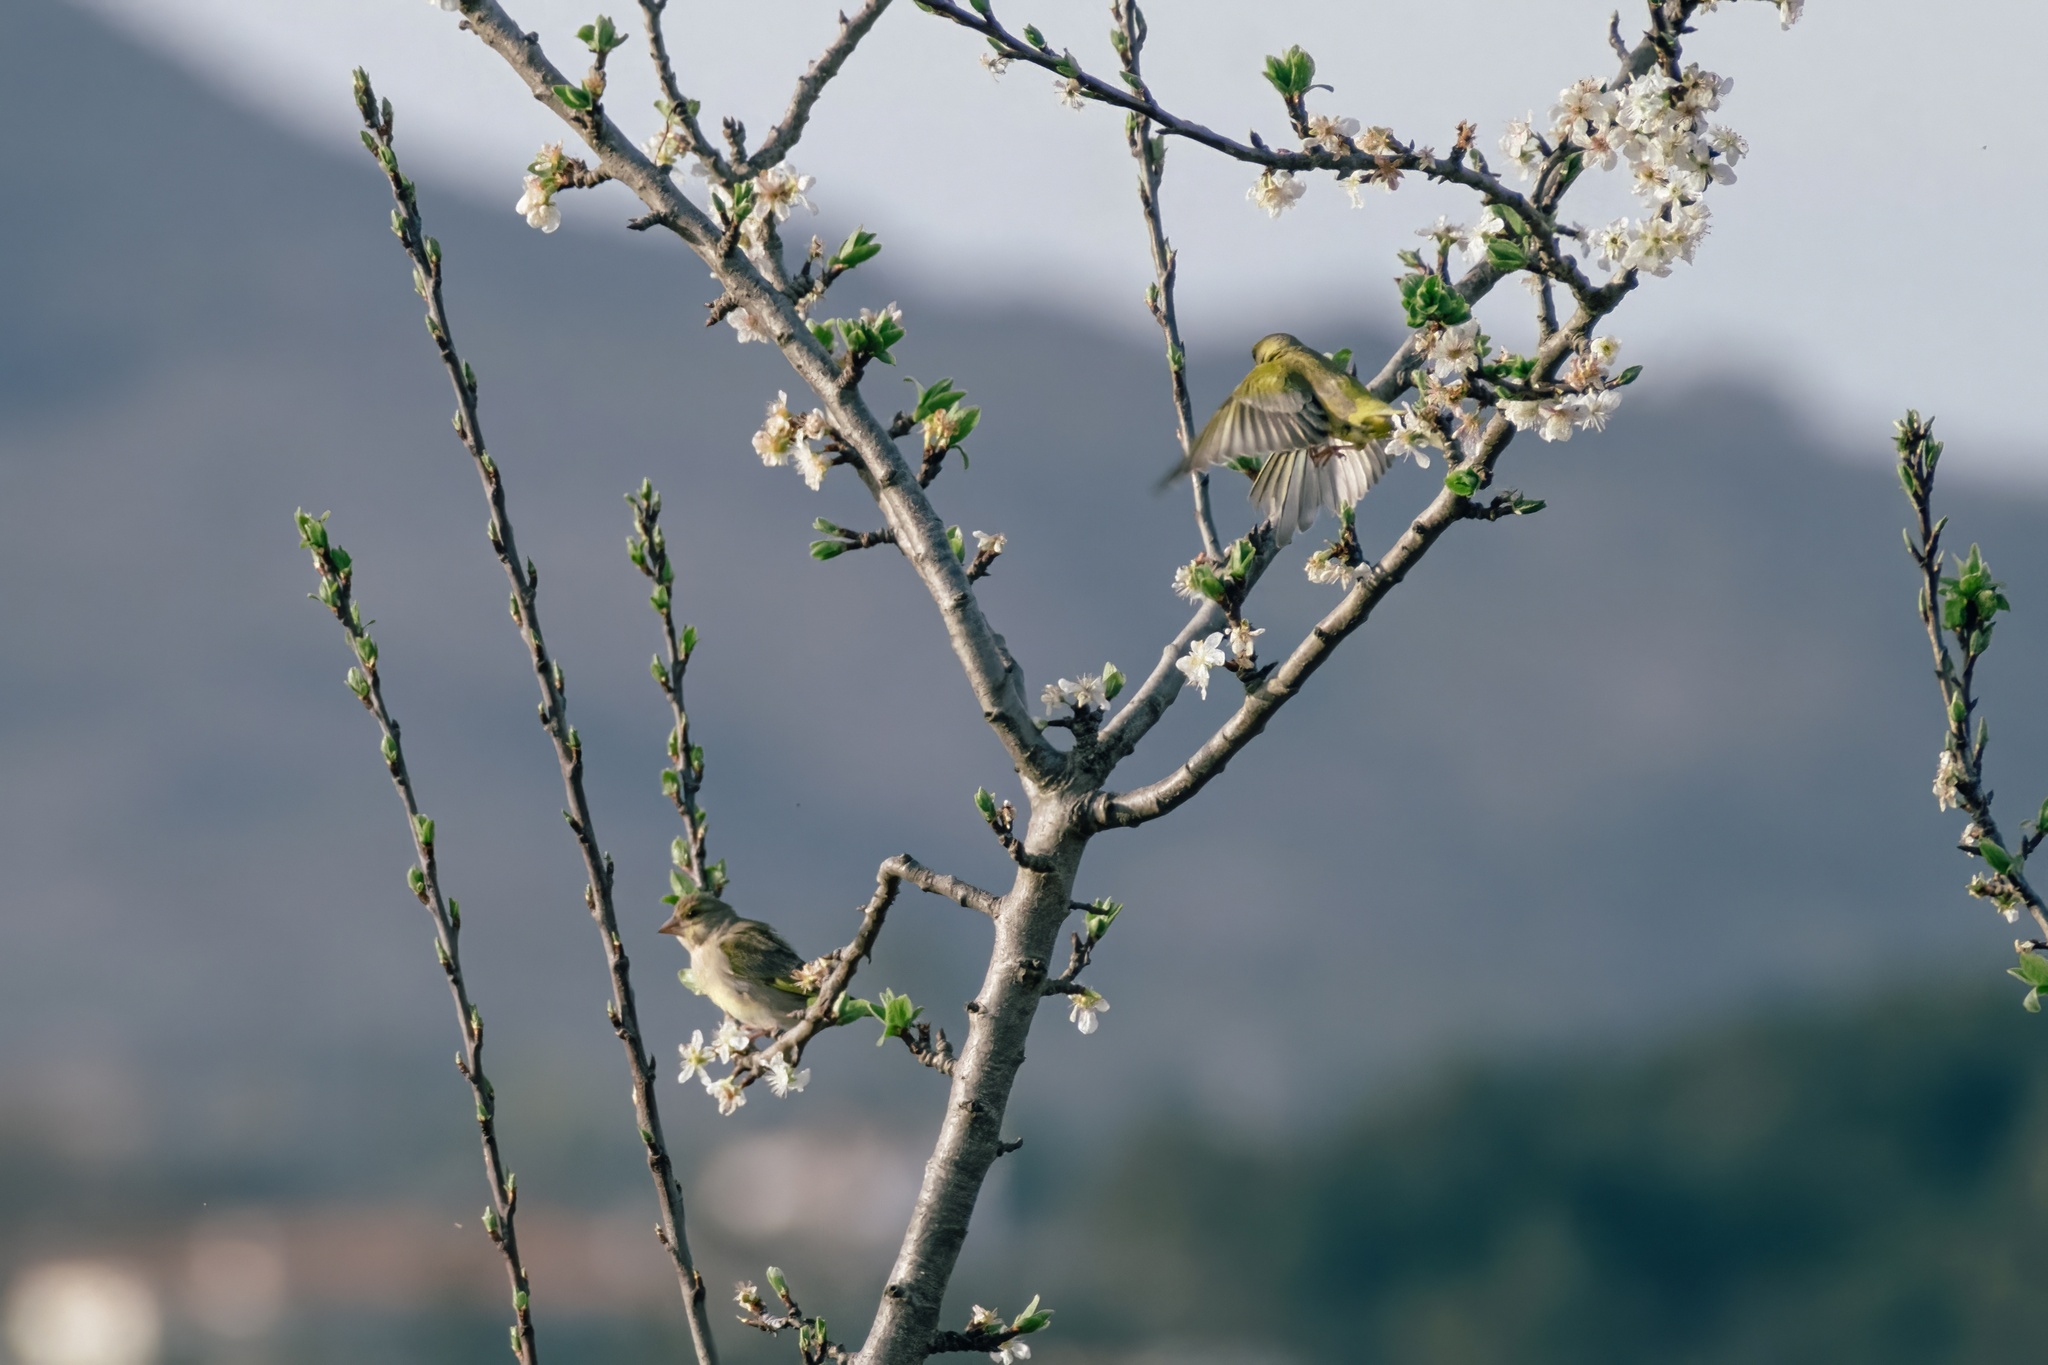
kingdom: Plantae
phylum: Tracheophyta
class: Liliopsida
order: Poales
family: Poaceae
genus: Chloris
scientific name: Chloris chloris
